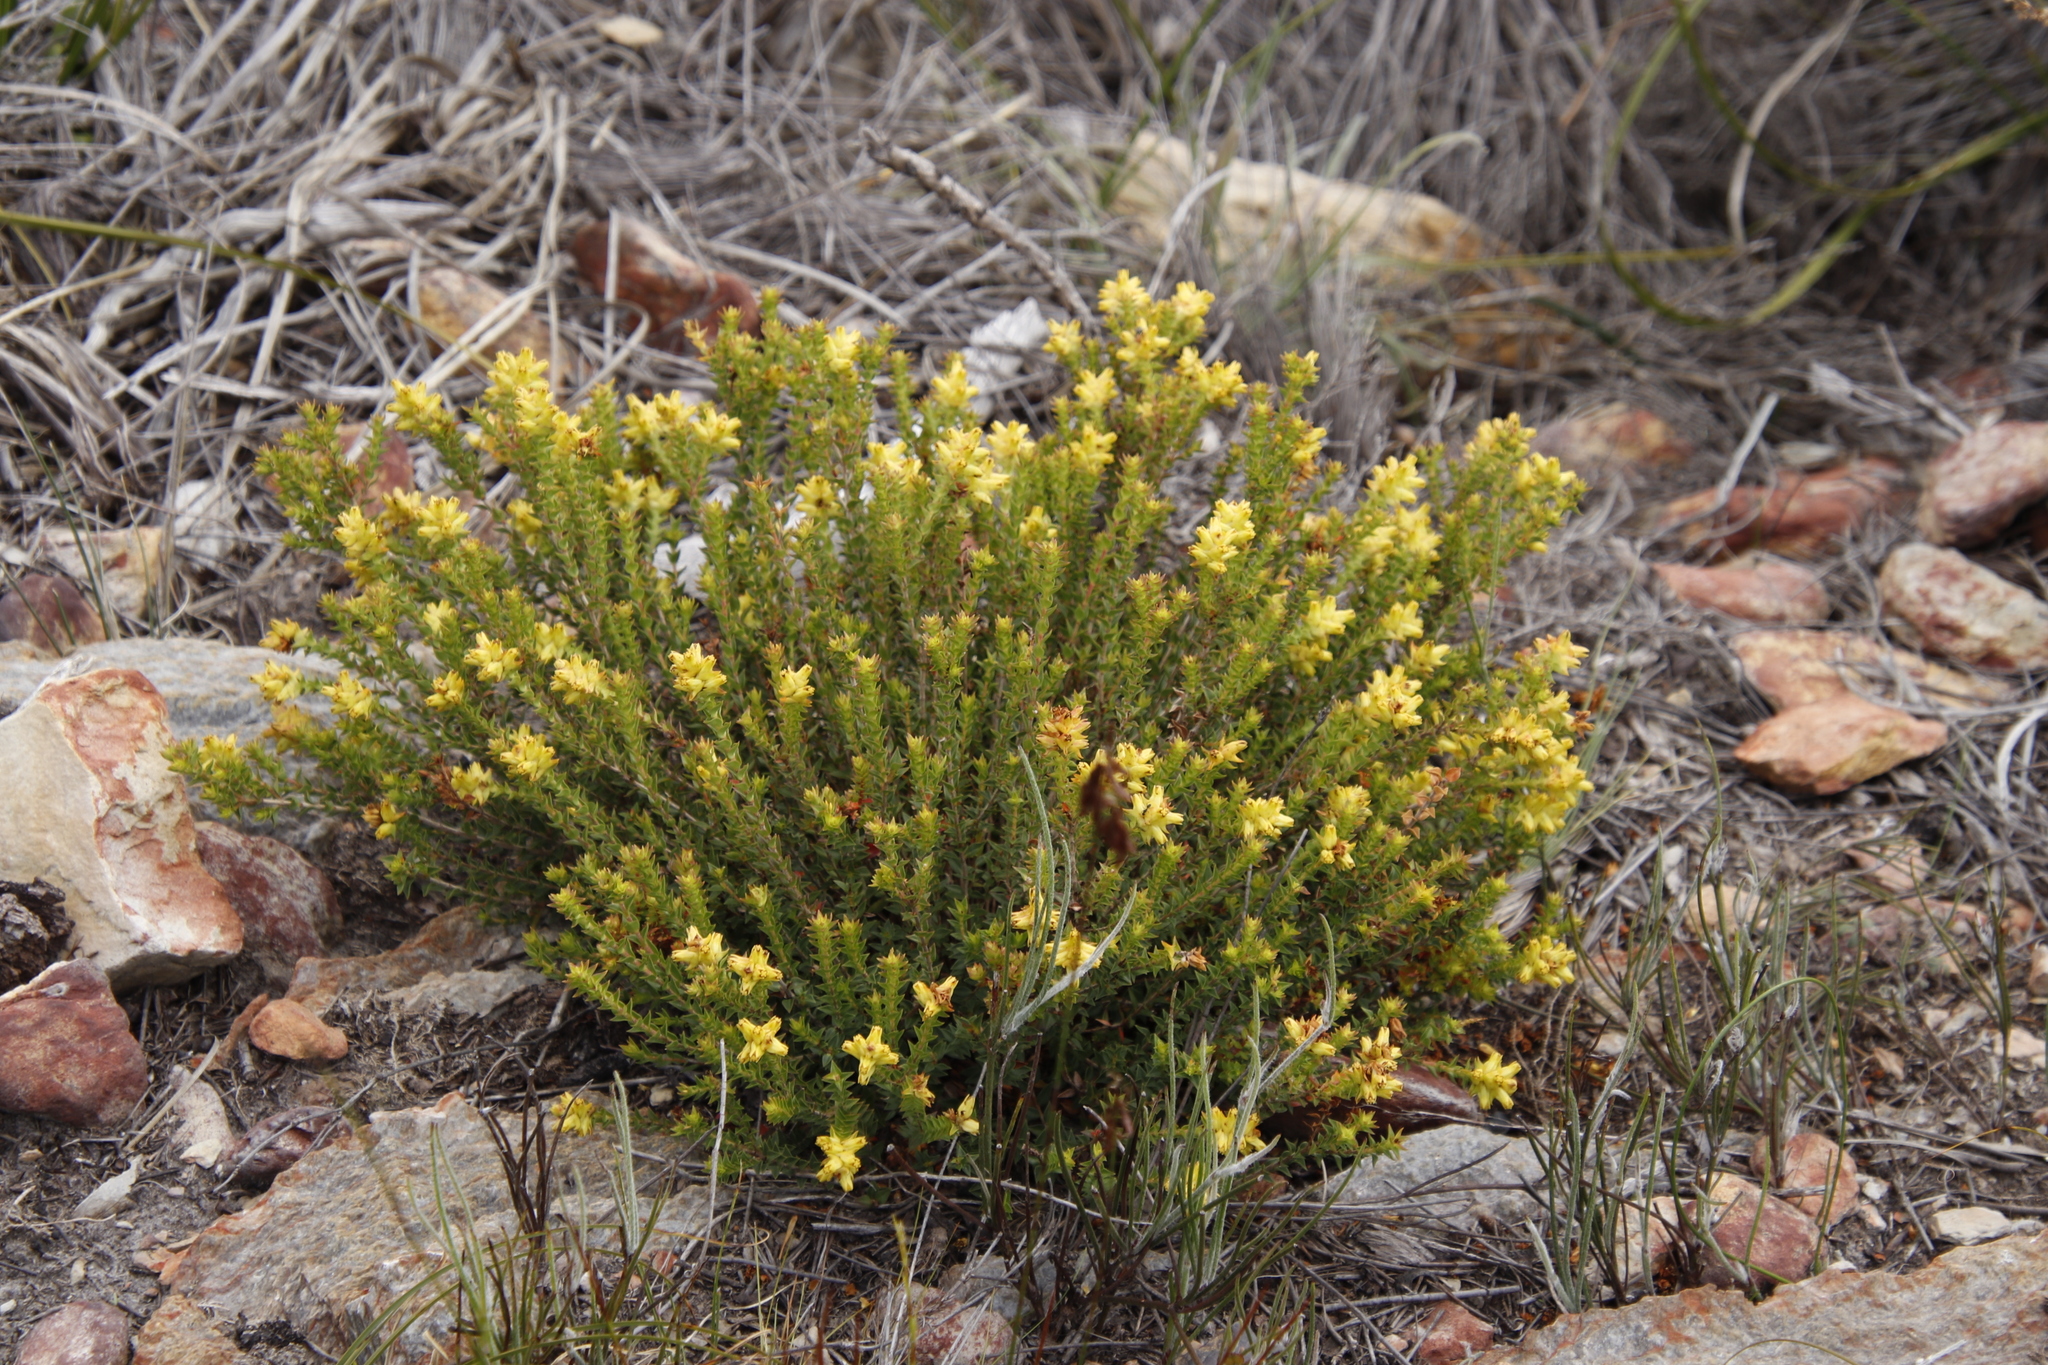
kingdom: Plantae
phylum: Tracheophyta
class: Magnoliopsida
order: Myrtales
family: Penaeaceae
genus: Penaea
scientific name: Penaea mucronata
